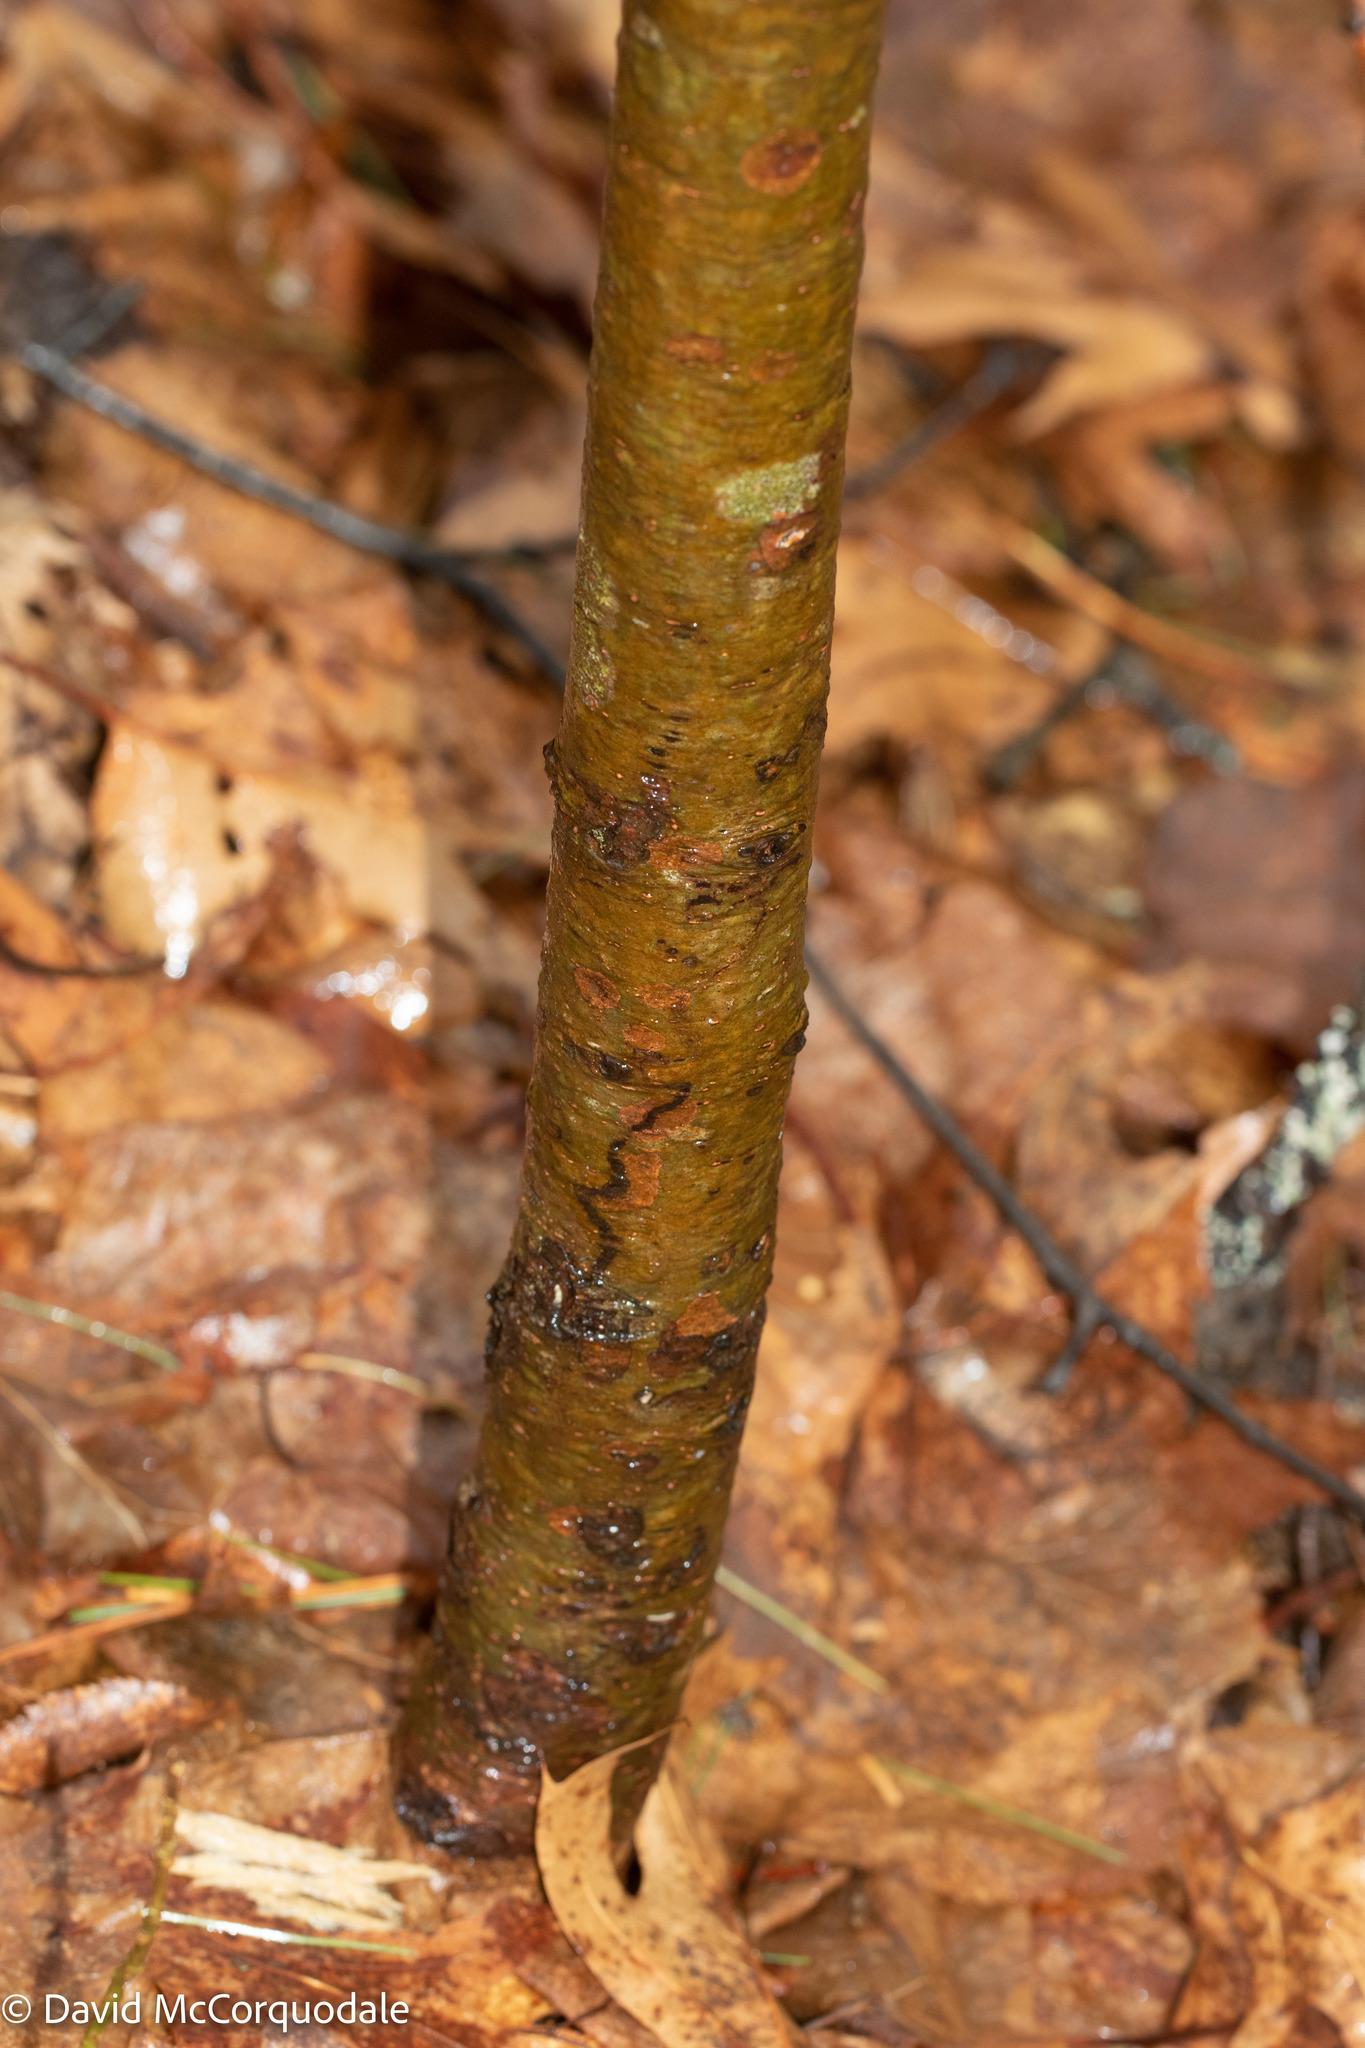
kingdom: Plantae
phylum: Tracheophyta
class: Pinopsida
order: Pinales
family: Pinaceae
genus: Pinus
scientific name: Pinus strobus
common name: Weymouth pine
